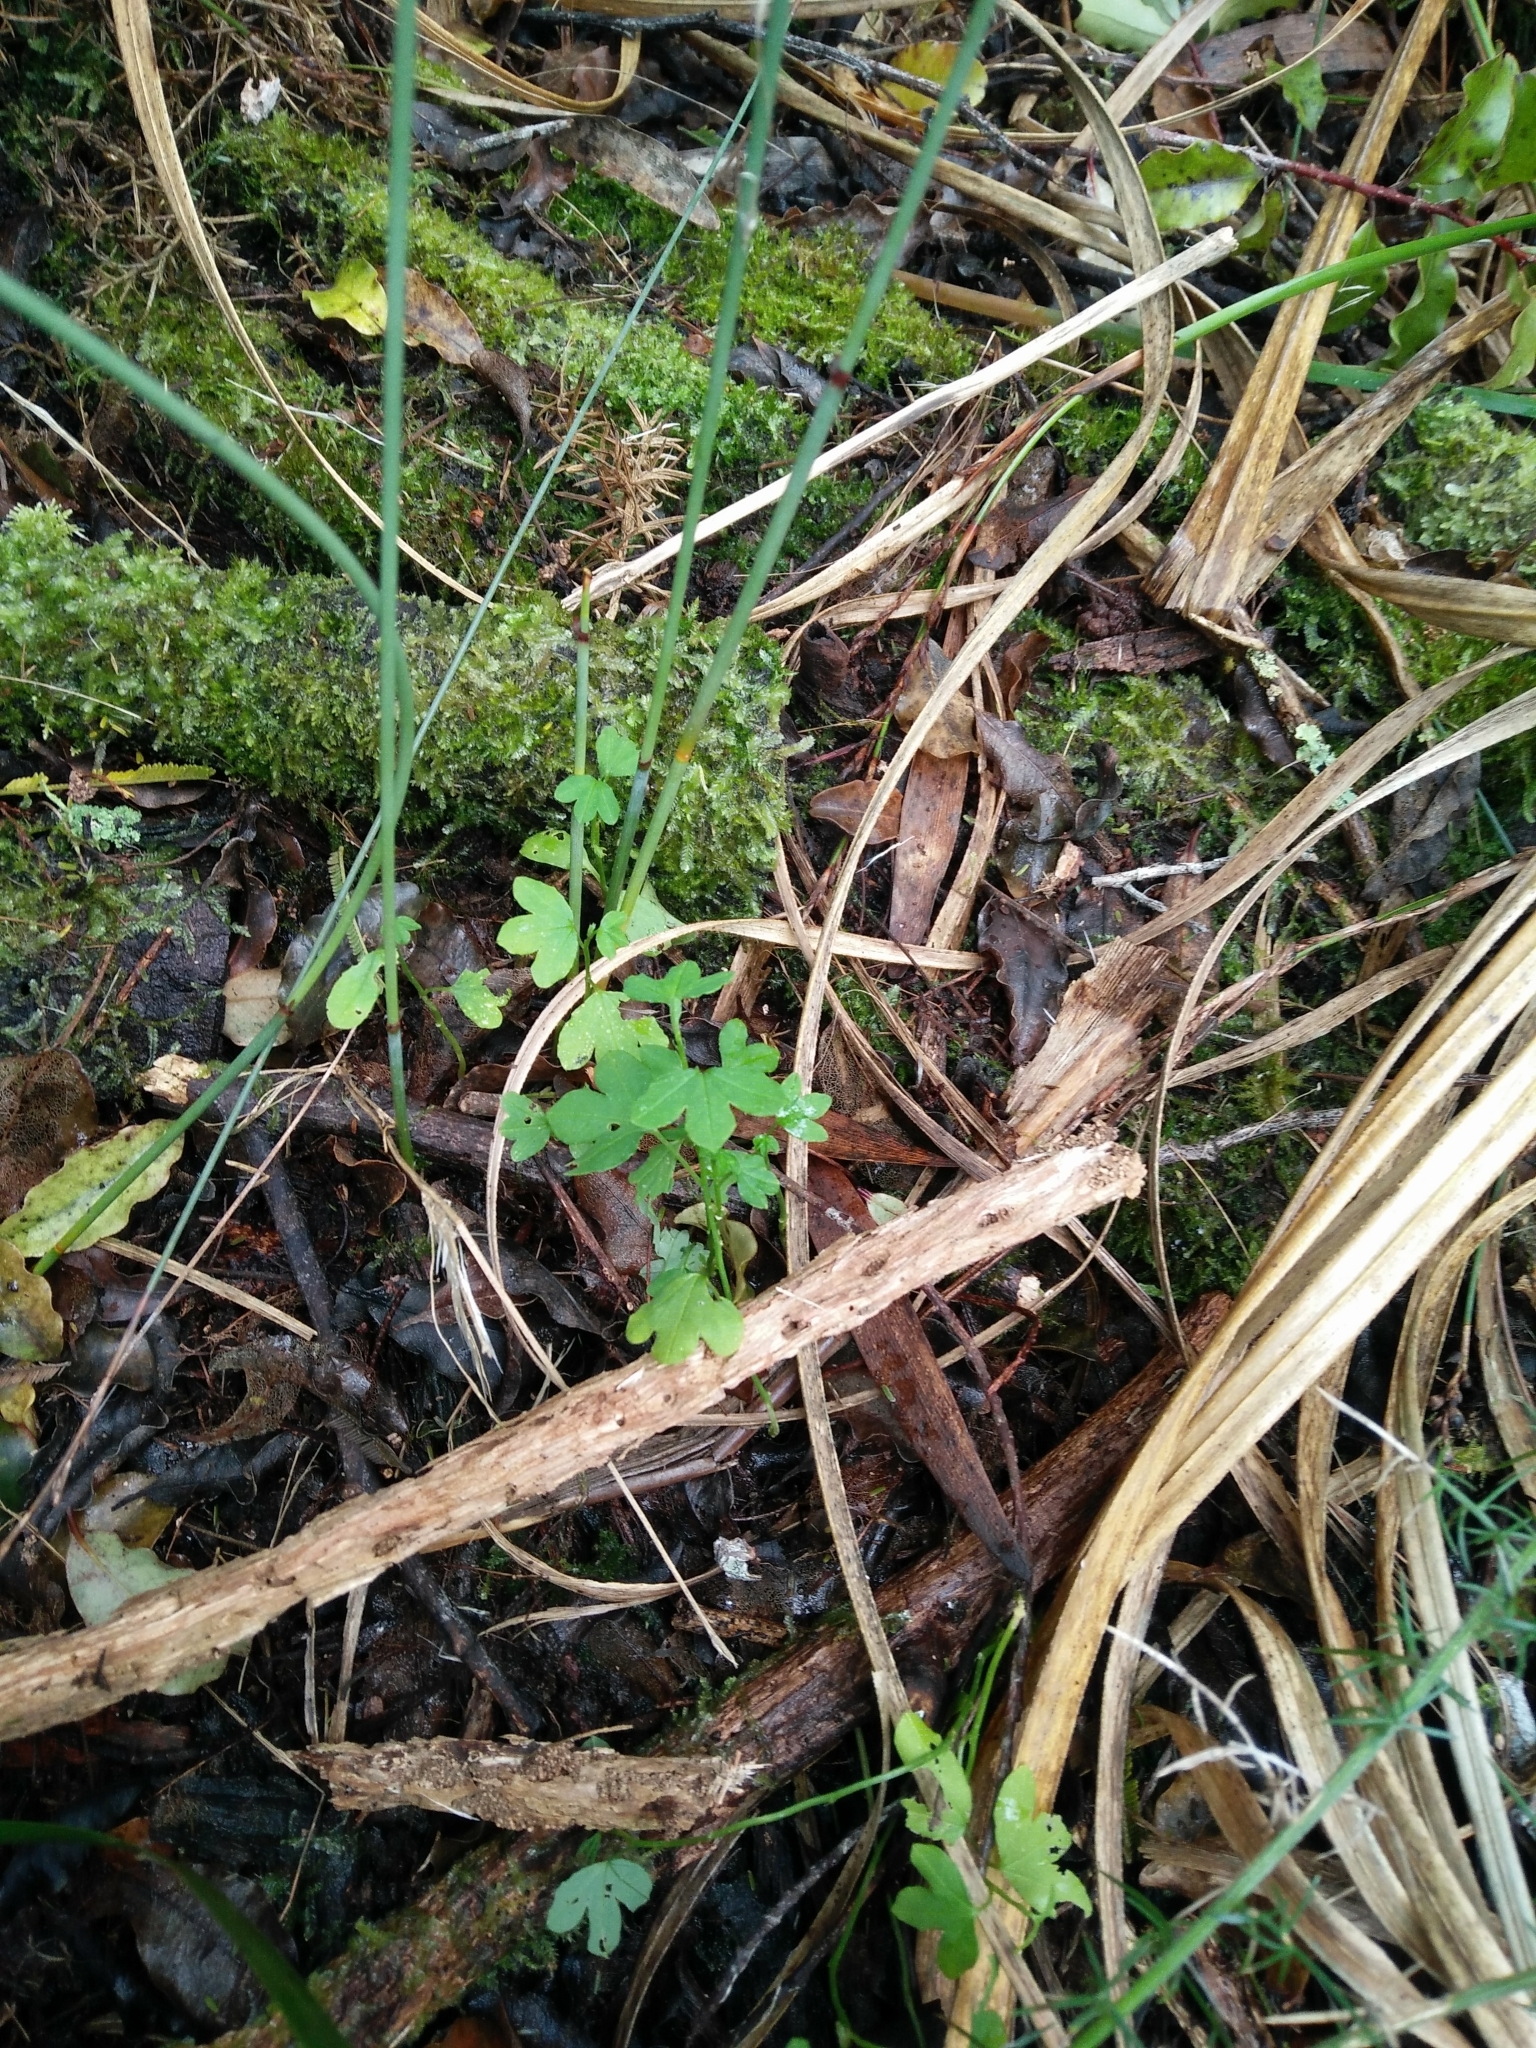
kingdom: Plantae
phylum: Tracheophyta
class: Magnoliopsida
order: Malpighiales
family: Passifloraceae
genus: Passiflora
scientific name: Passiflora tripartita
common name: Banana poka
